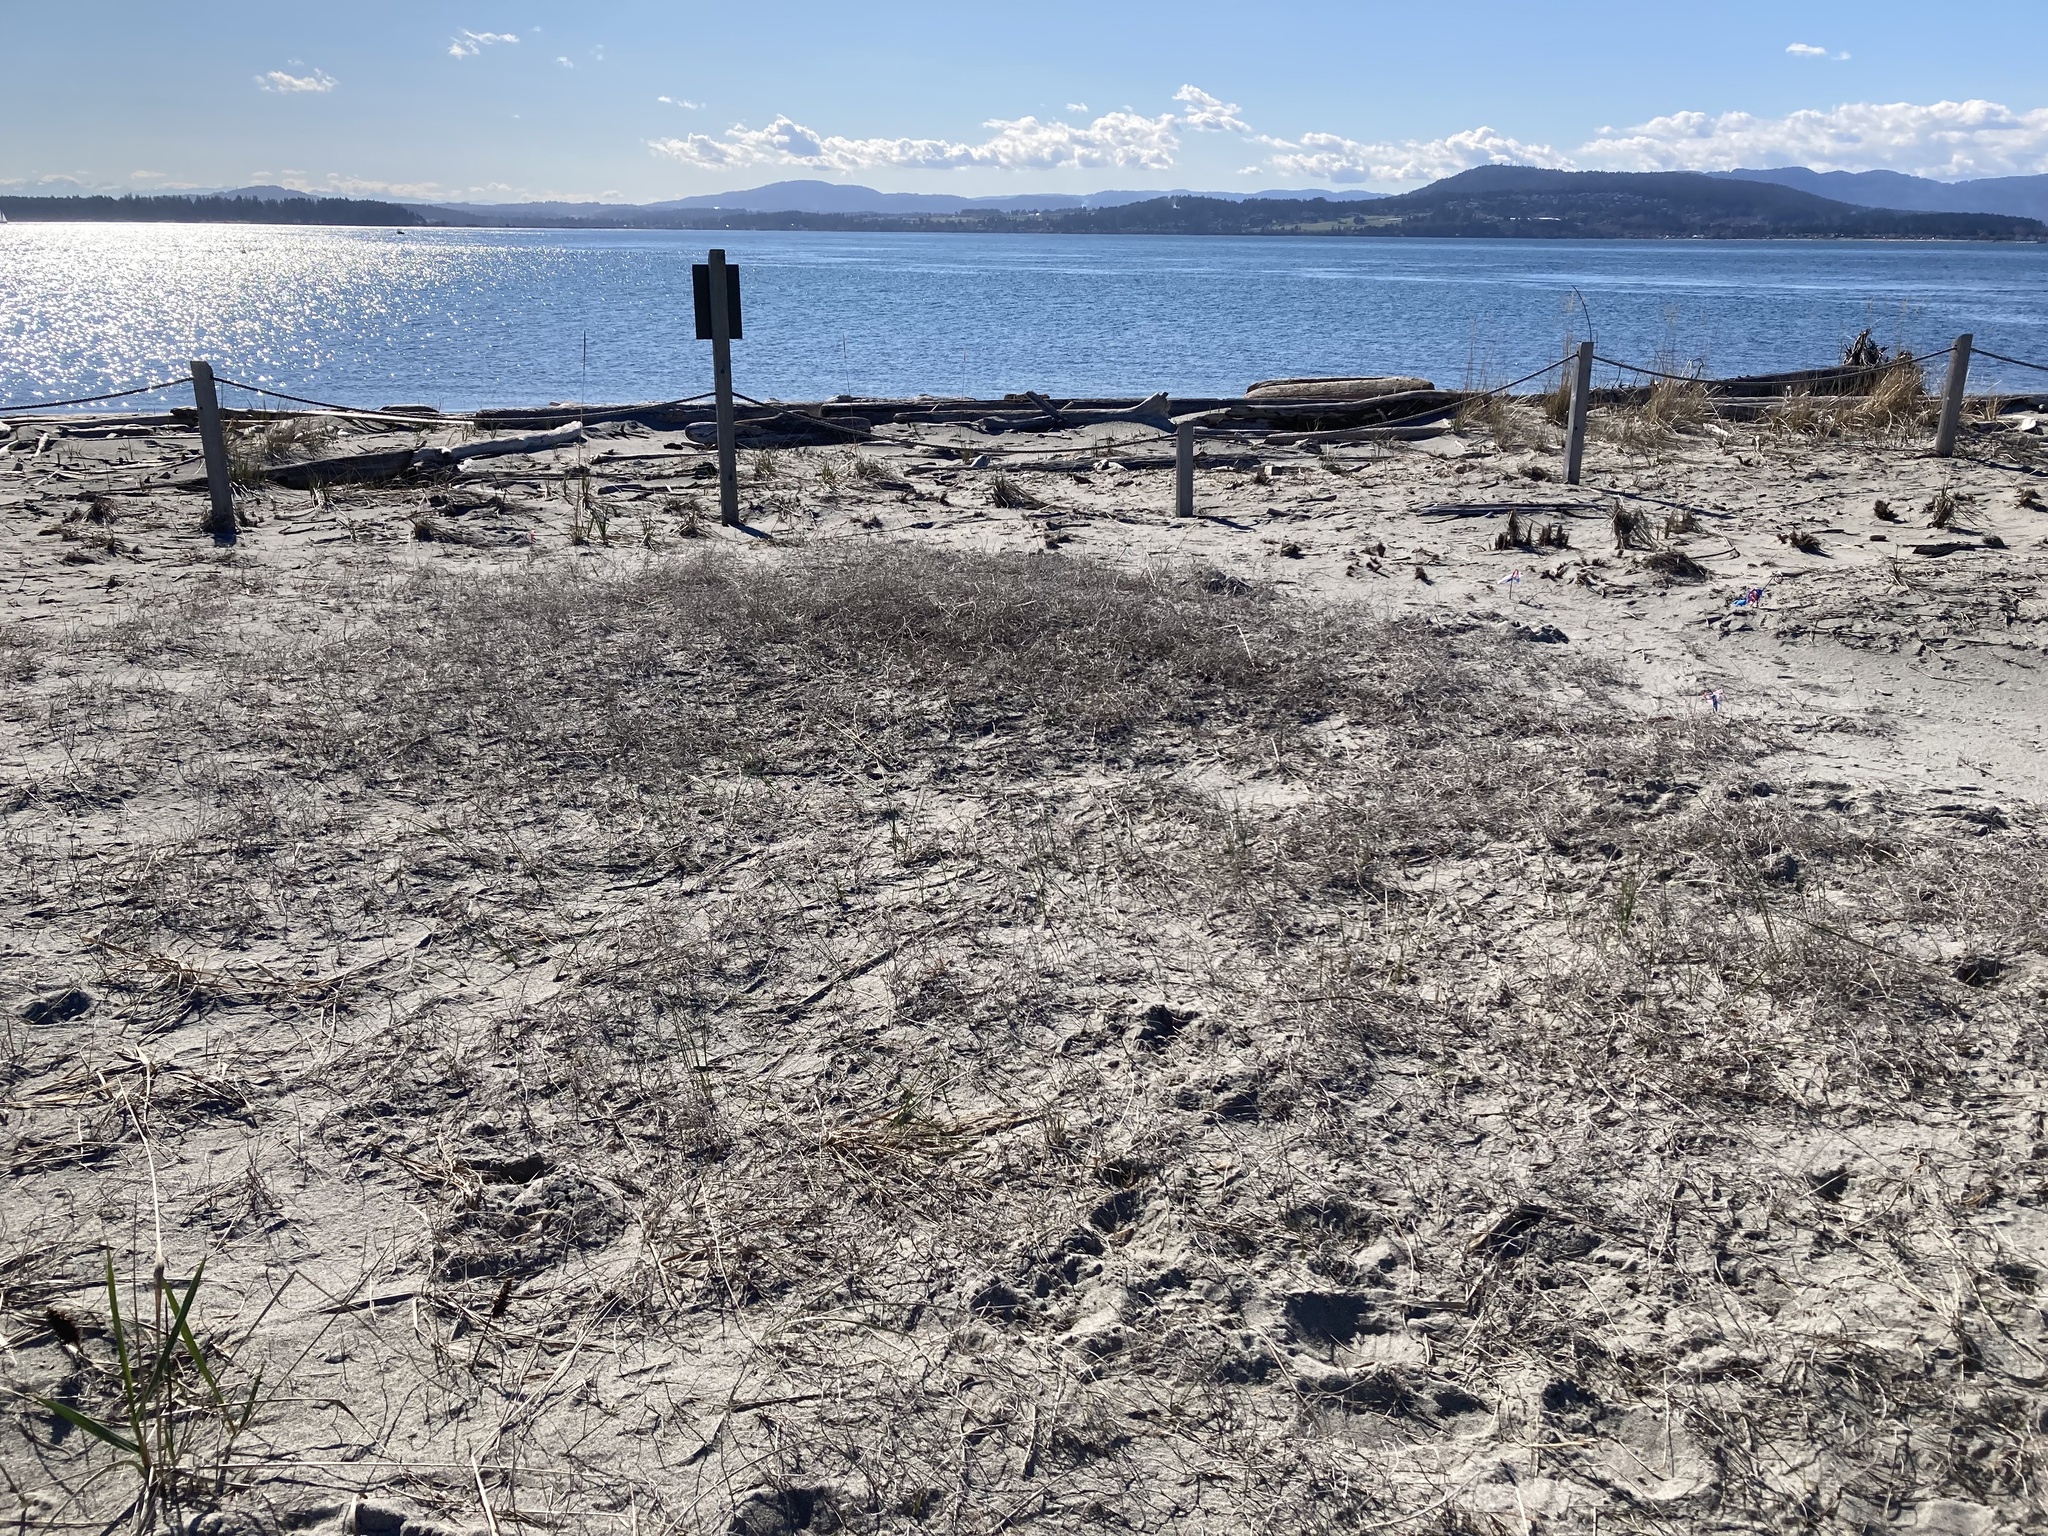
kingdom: Plantae
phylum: Tracheophyta
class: Magnoliopsida
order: Fabales
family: Fabaceae
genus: Lathyrus
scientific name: Lathyrus littoralis
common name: Dune sweet pea
